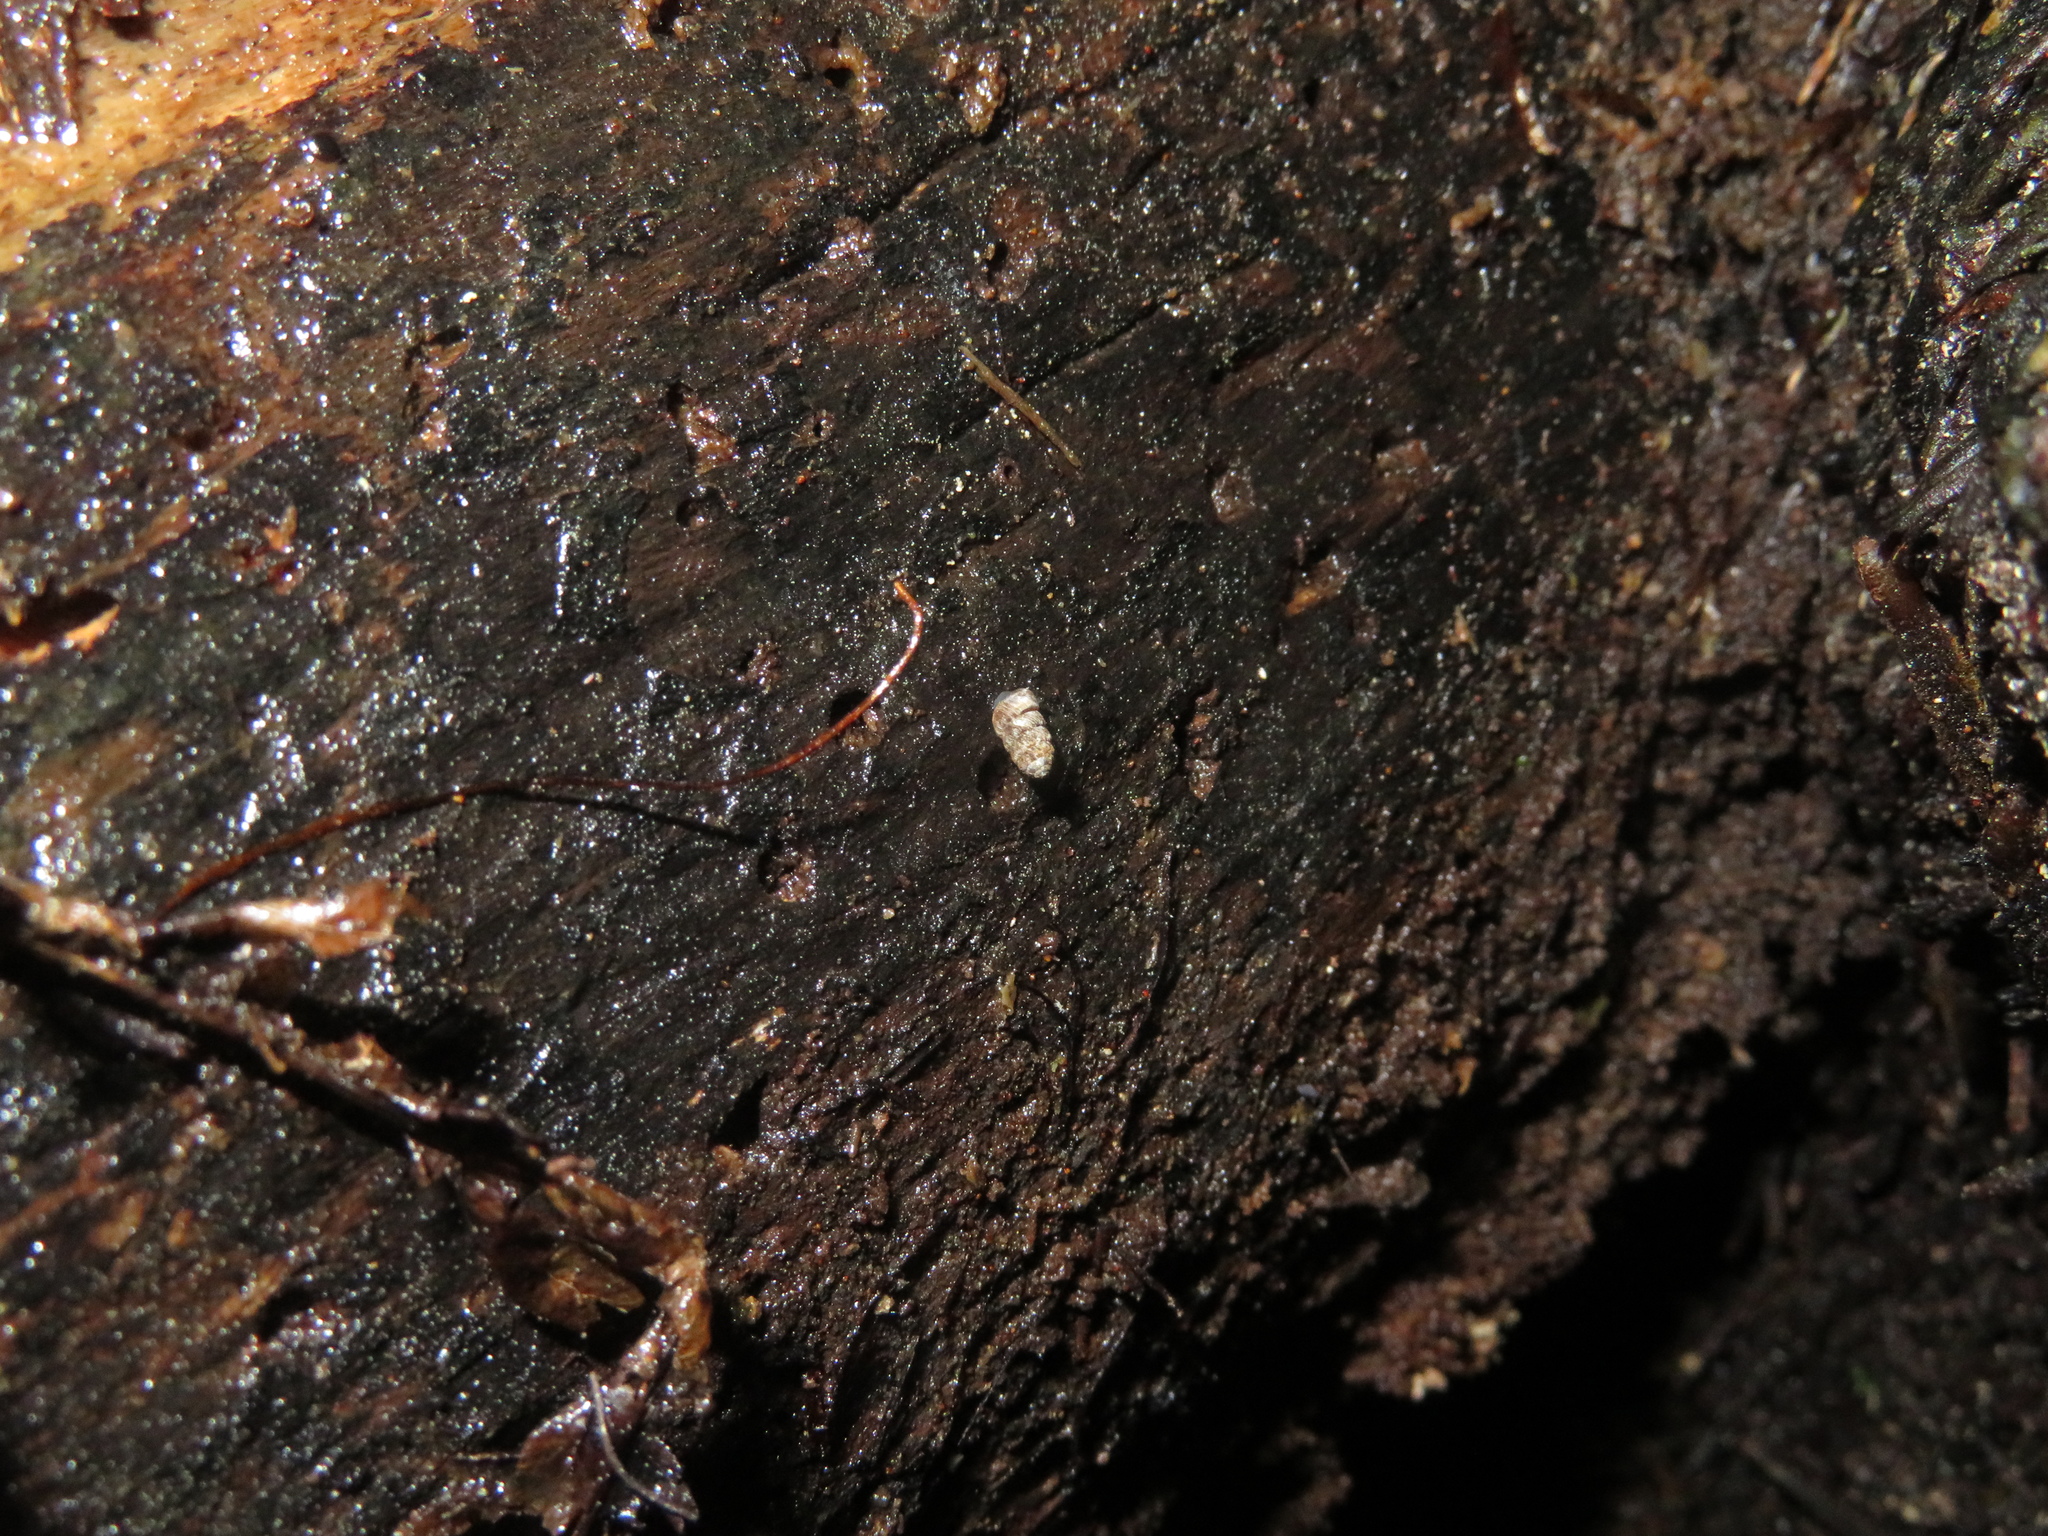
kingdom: Animalia
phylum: Mollusca
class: Gastropoda
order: Stylommatophora
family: Charopidae
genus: Phenacharopa
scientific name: Phenacharopa novoseelandica
